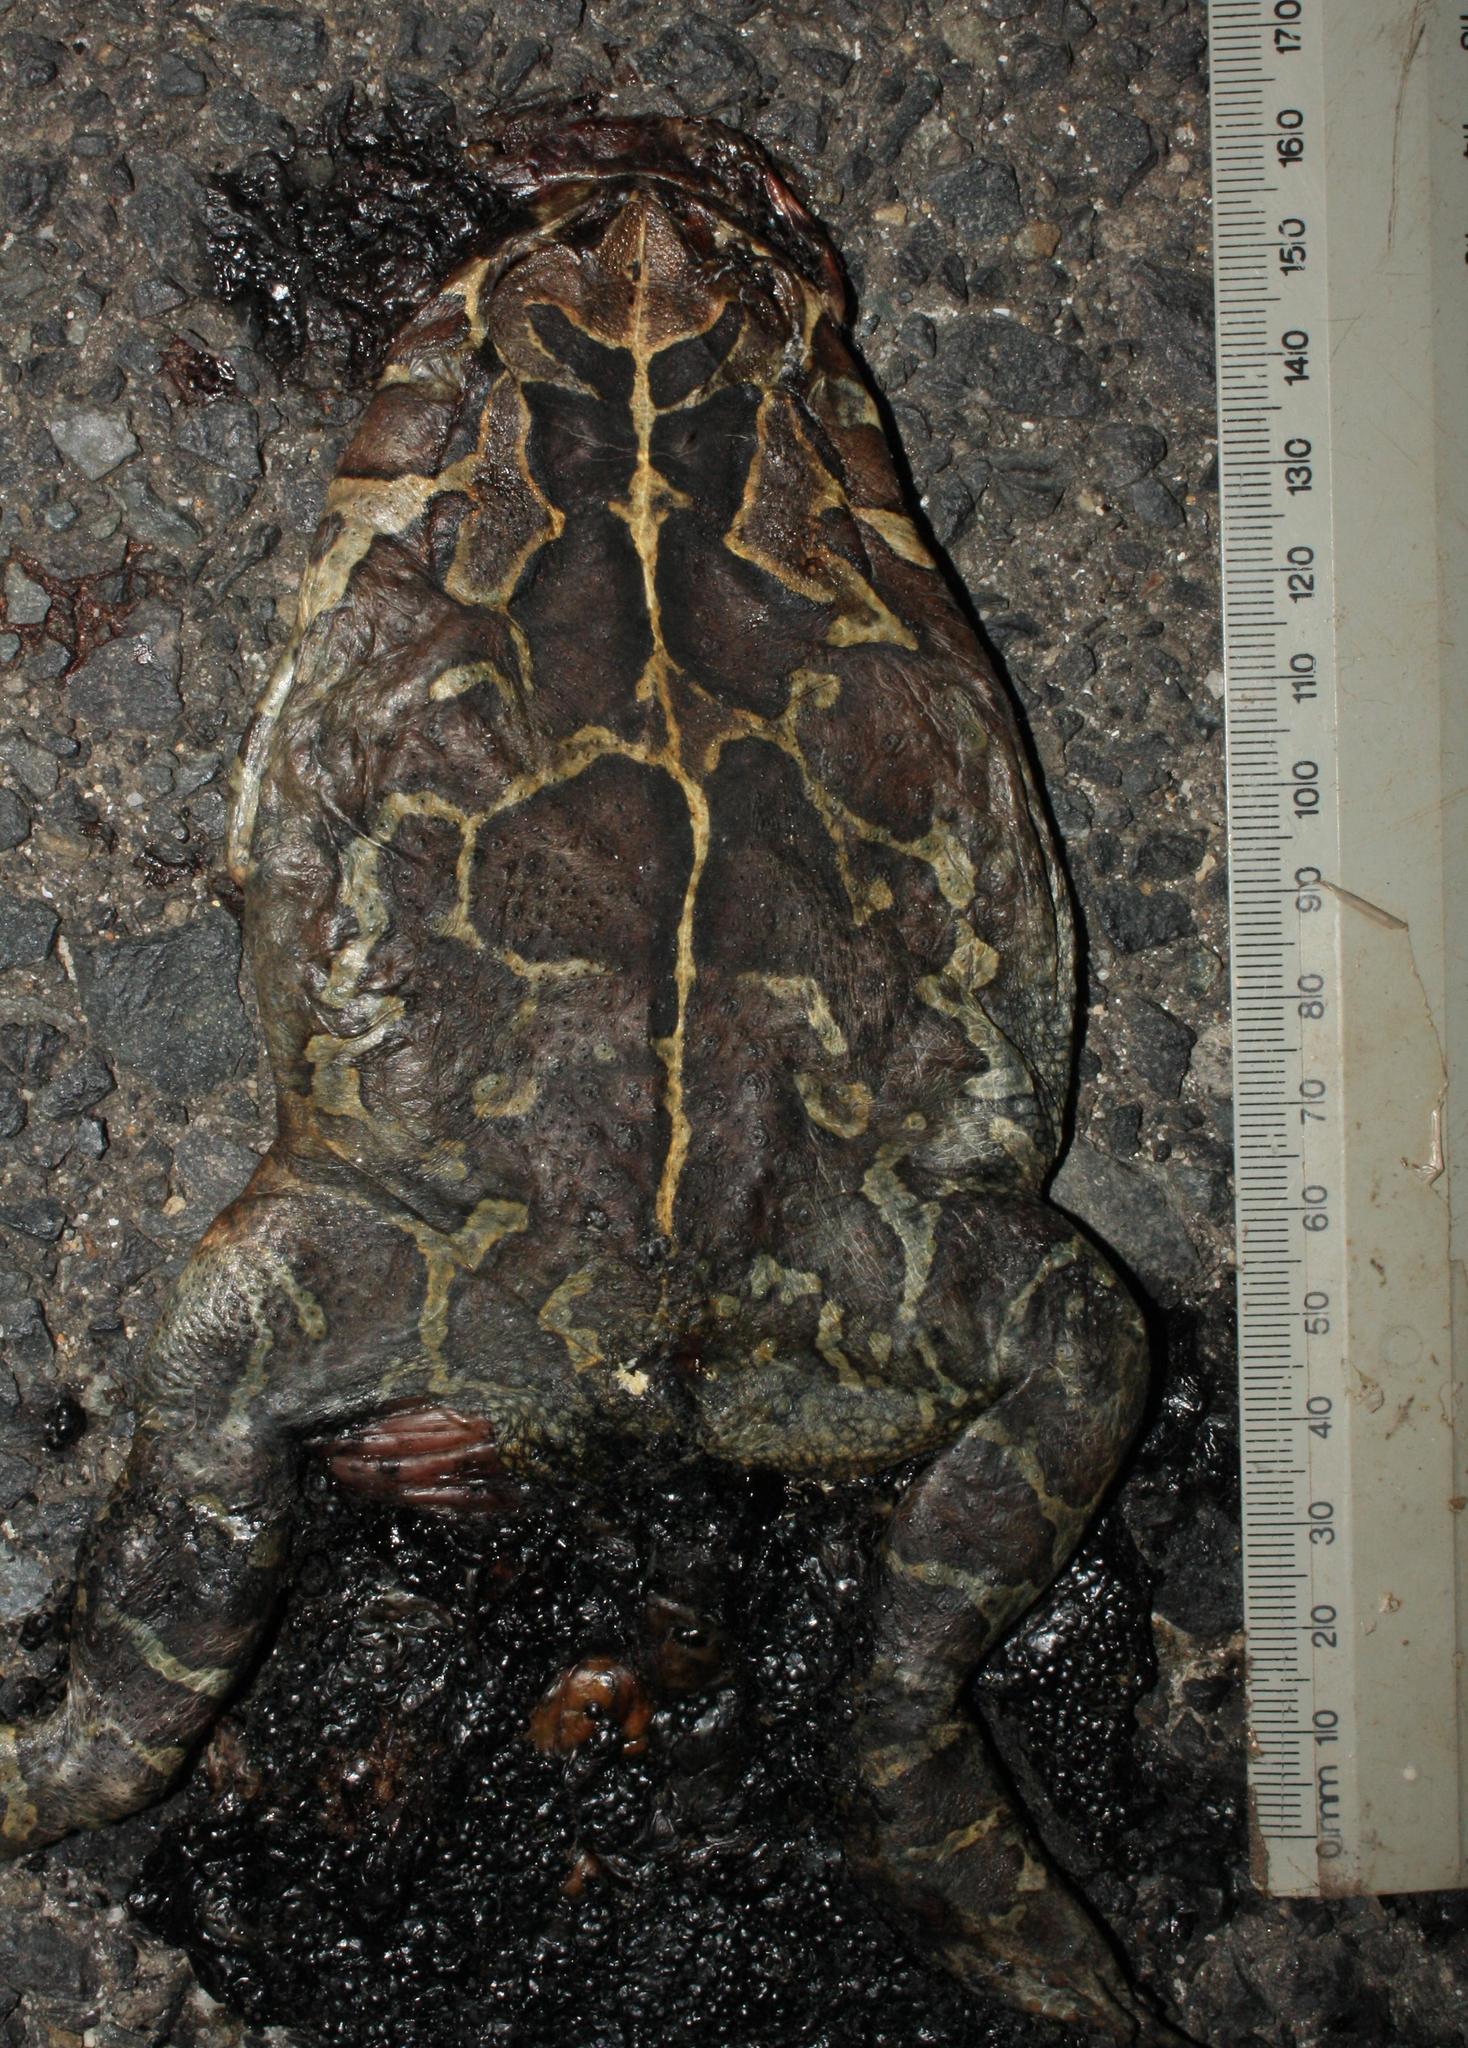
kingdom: Animalia
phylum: Chordata
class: Amphibia
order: Anura
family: Bufonidae
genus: Sclerophrys
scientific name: Sclerophrys pantherina
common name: Panther toad
